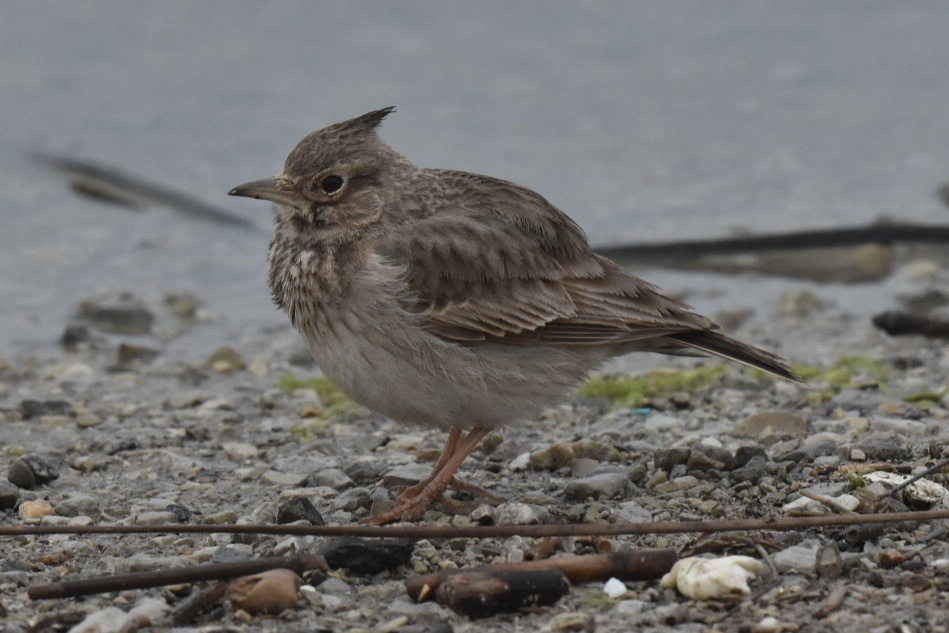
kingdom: Animalia
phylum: Chordata
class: Aves
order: Passeriformes
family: Alaudidae
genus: Galerida
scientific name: Galerida cristata
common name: Crested lark
